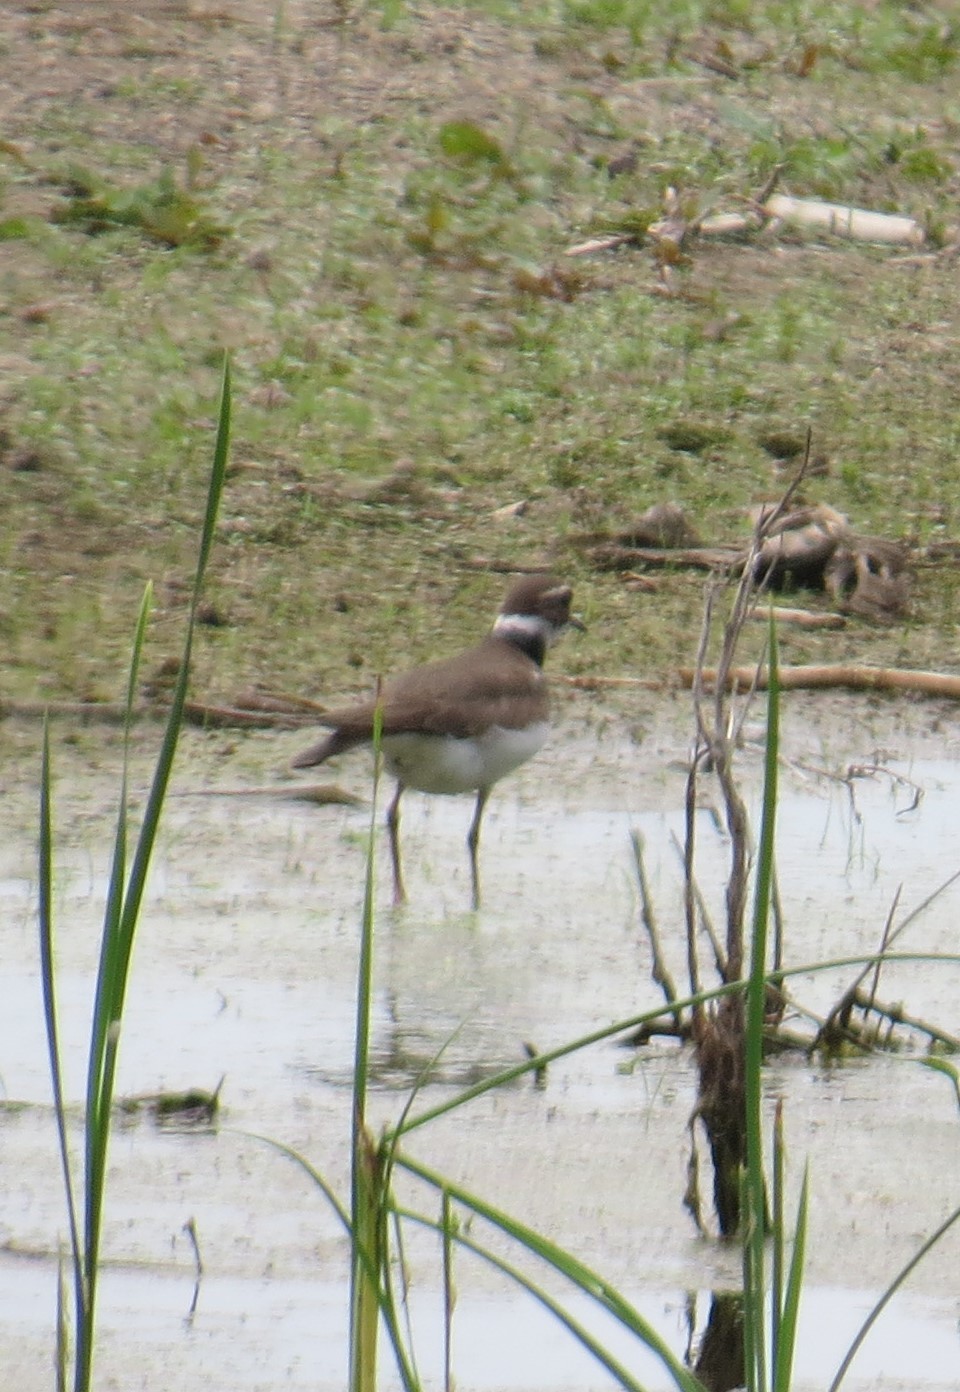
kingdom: Animalia
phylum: Chordata
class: Aves
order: Charadriiformes
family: Charadriidae
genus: Charadrius
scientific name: Charadrius vociferus
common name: Killdeer
